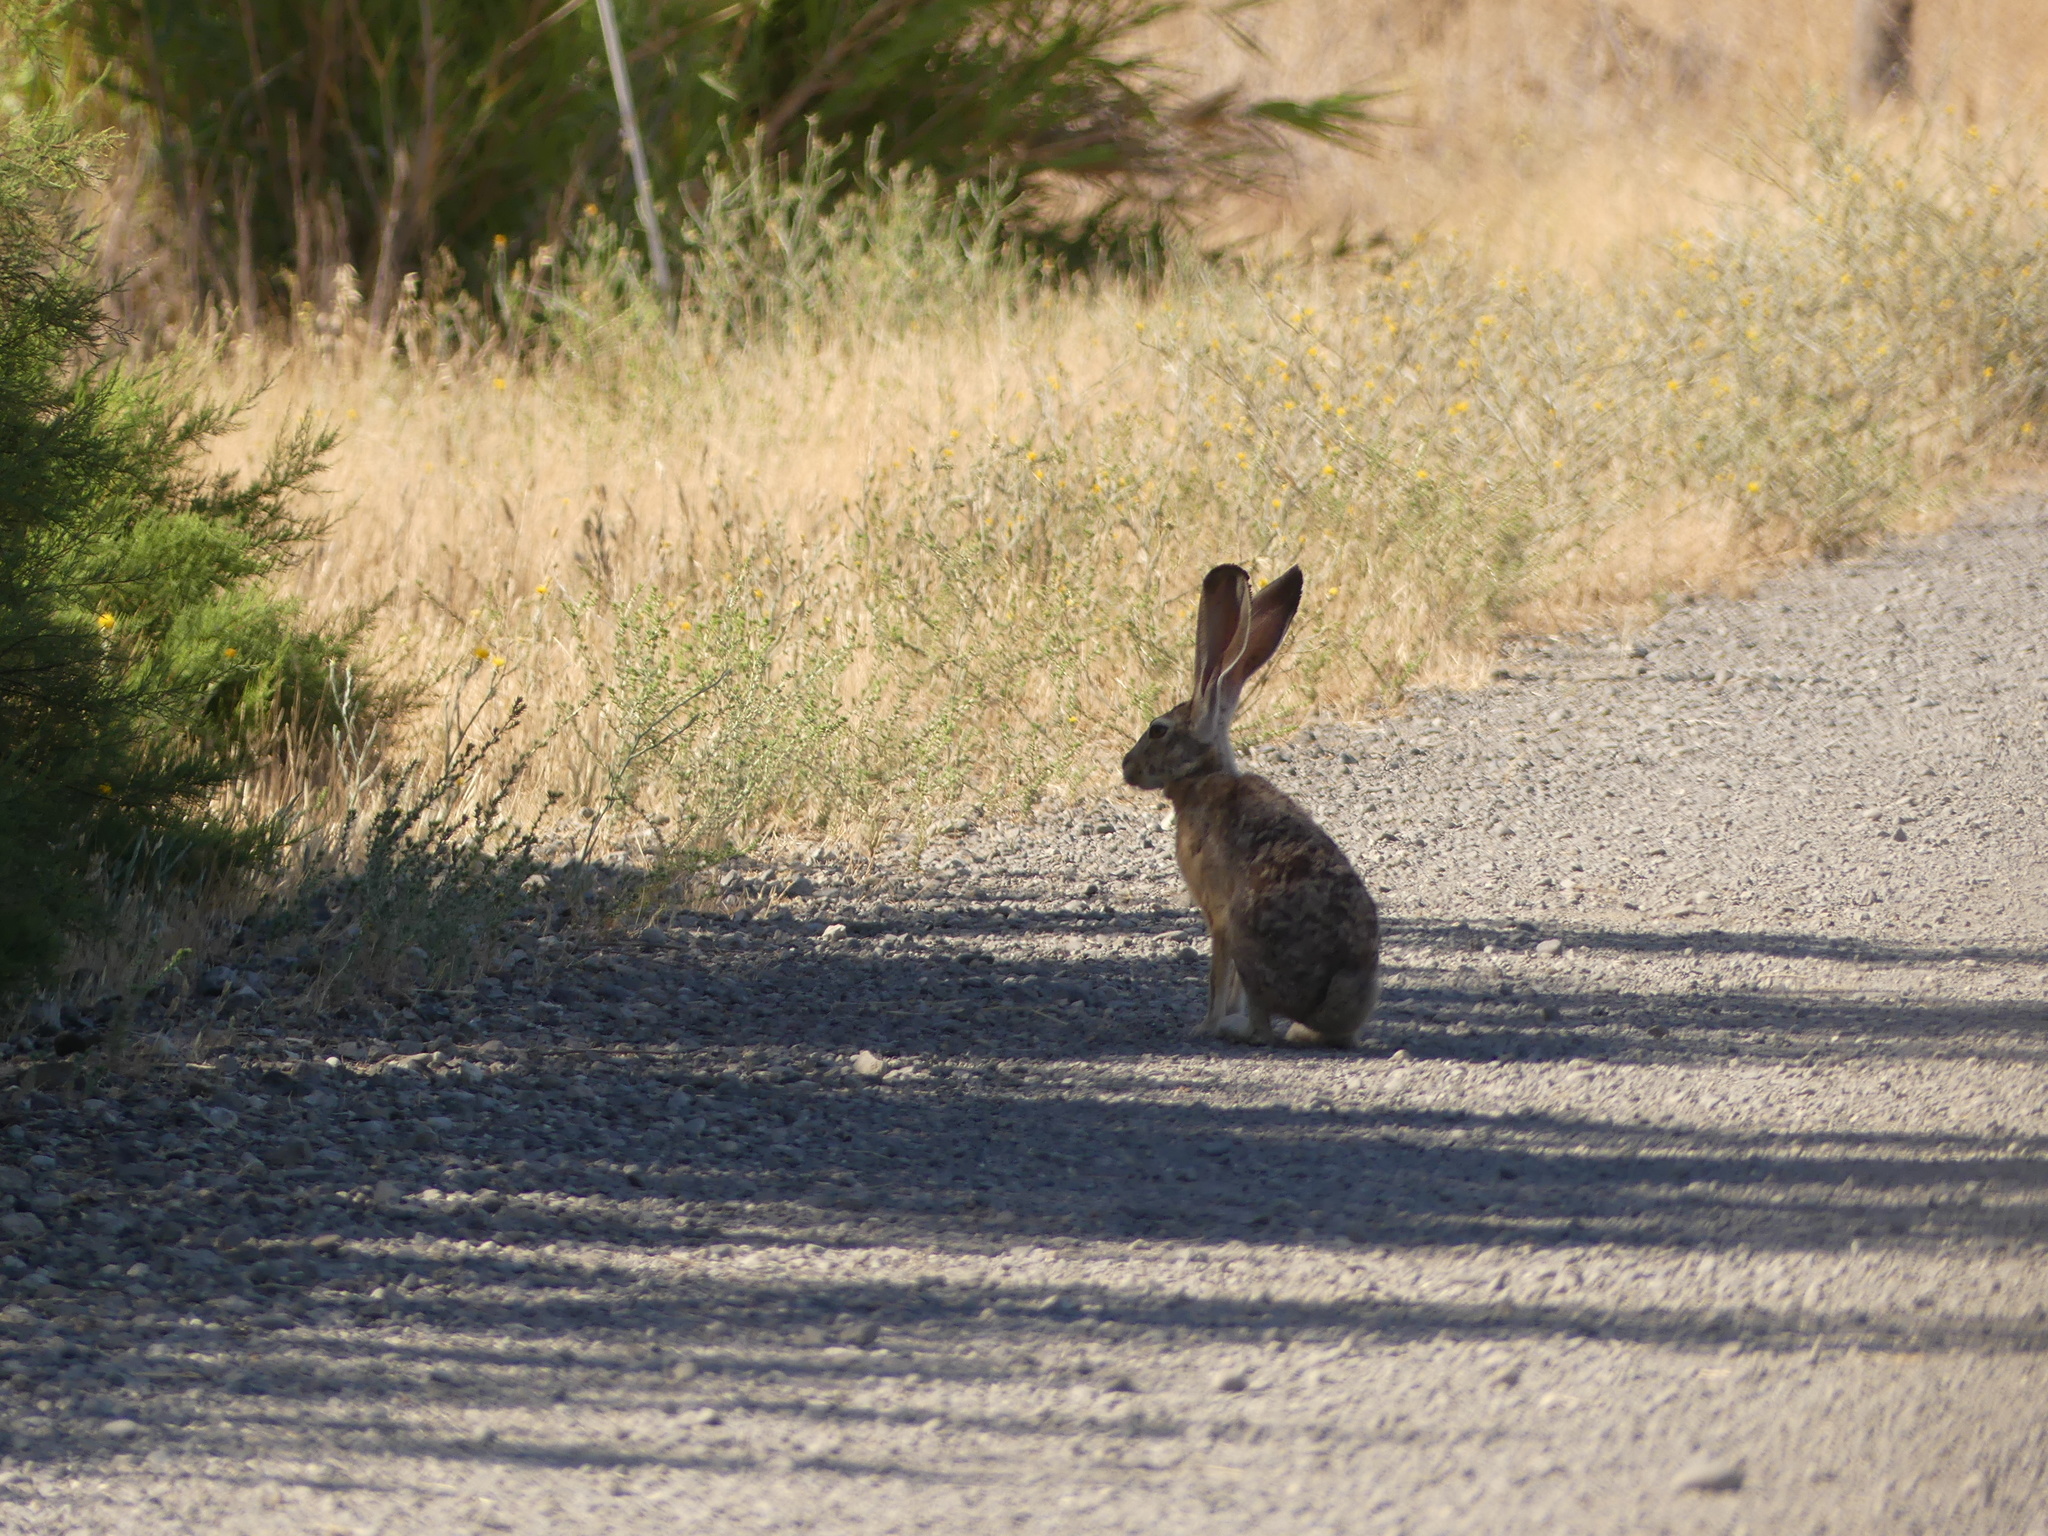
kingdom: Animalia
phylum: Chordata
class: Mammalia
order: Lagomorpha
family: Leporidae
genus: Lepus
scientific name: Lepus californicus
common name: Black-tailed jackrabbit
